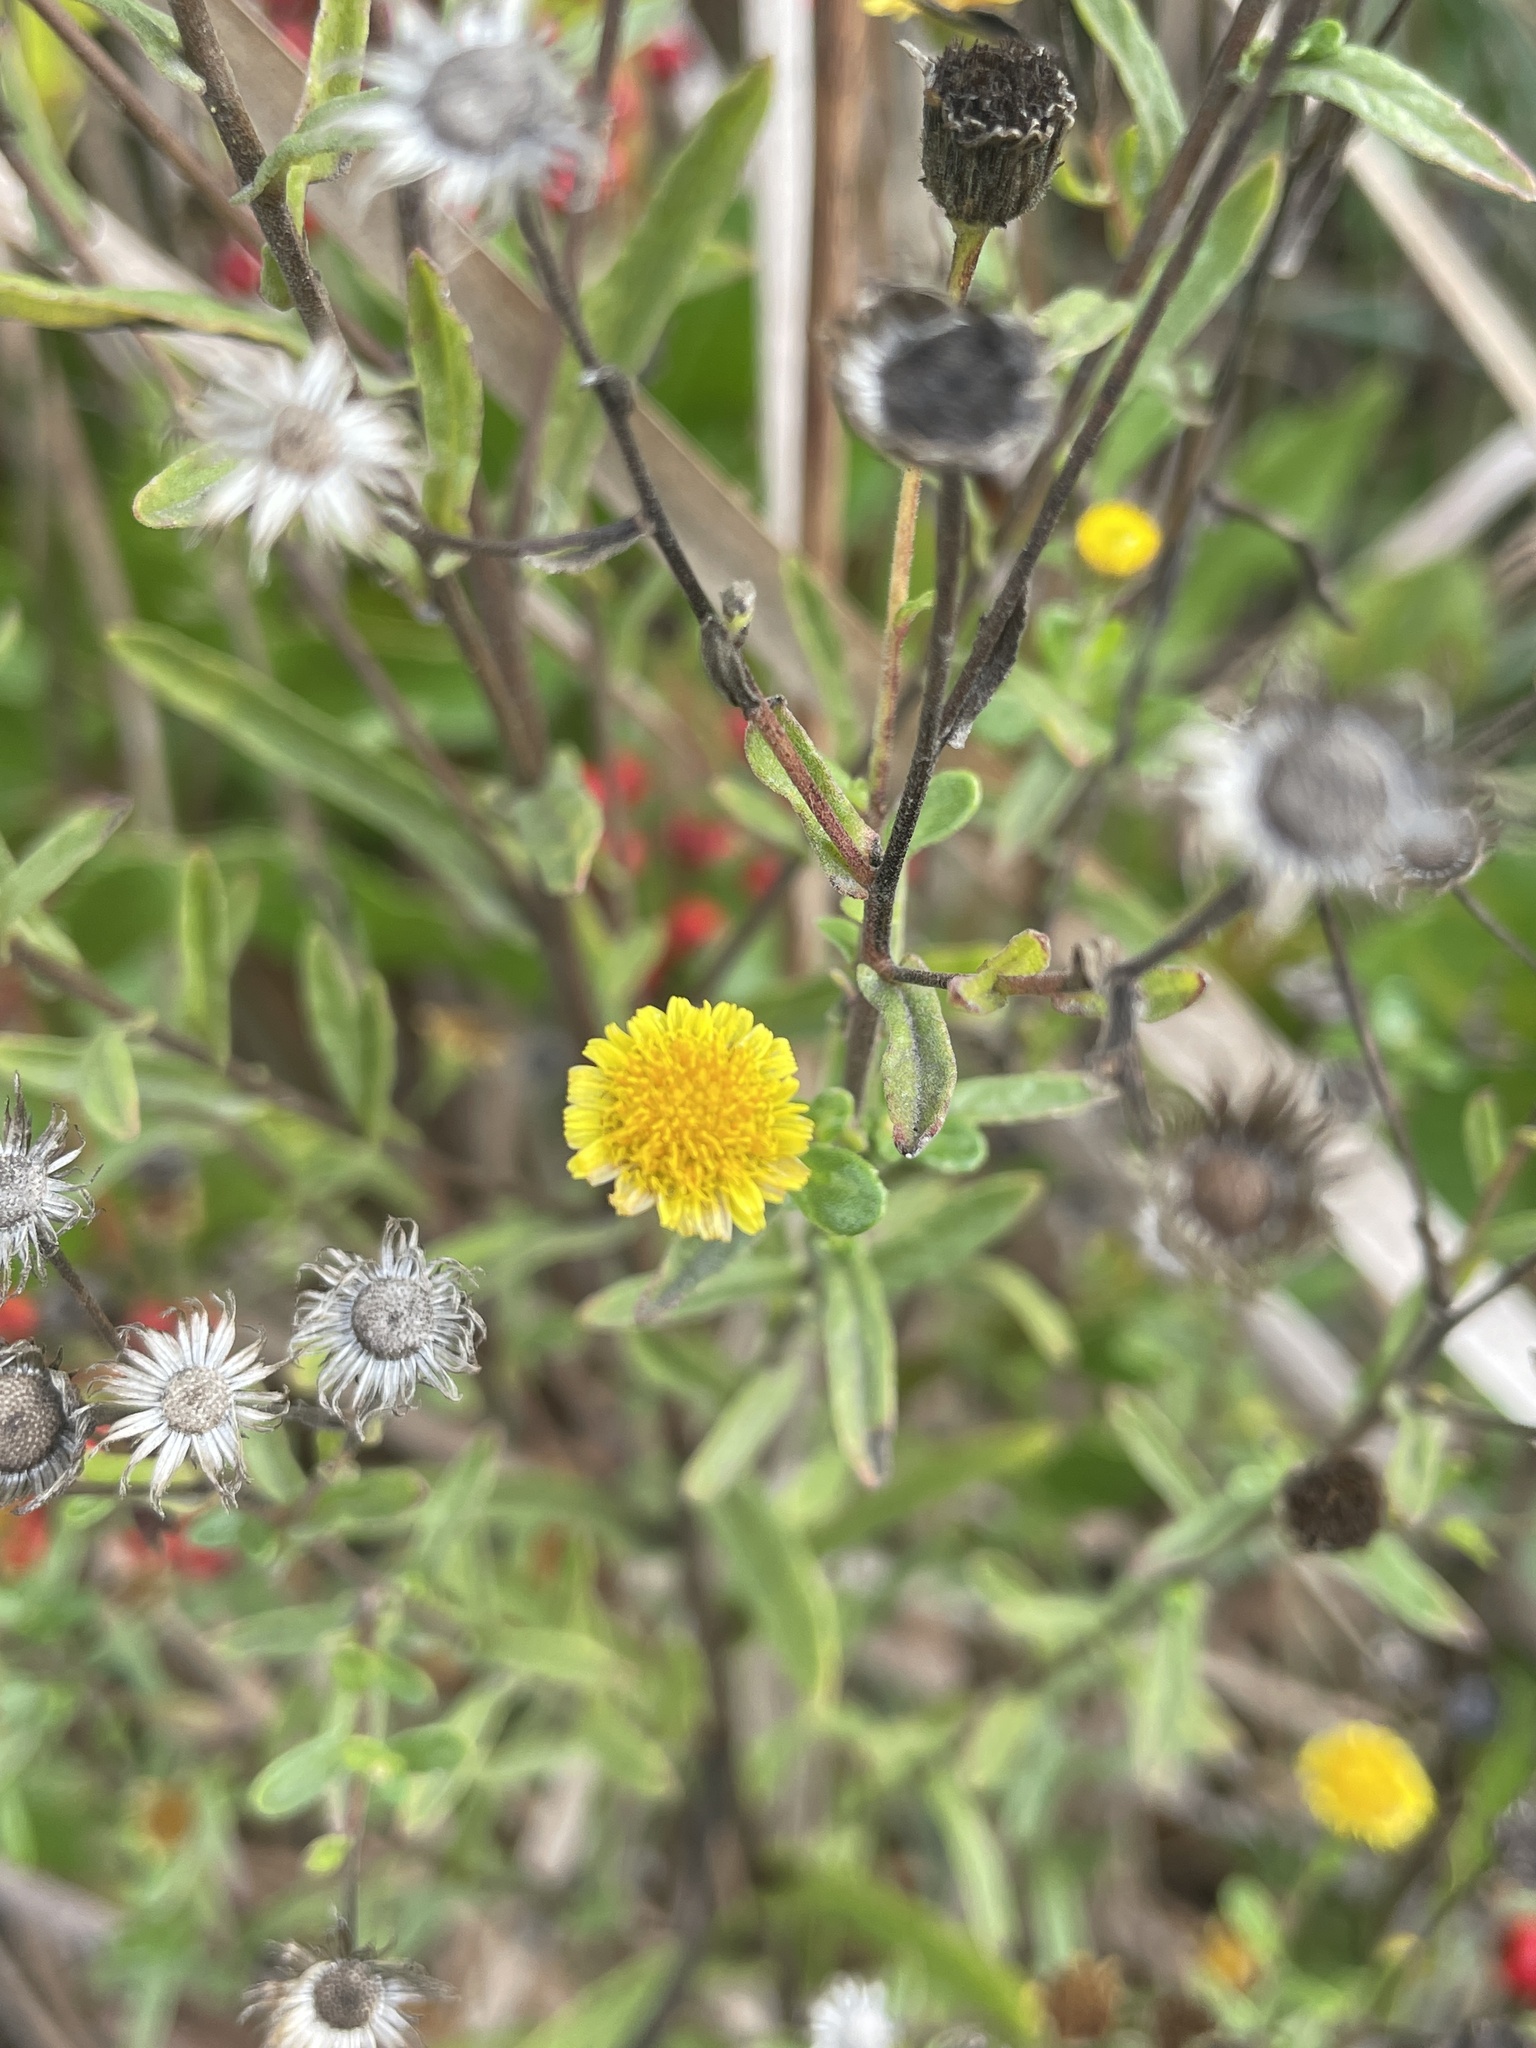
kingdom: Plantae
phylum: Tracheophyta
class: Magnoliopsida
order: Asterales
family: Asteraceae
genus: Pulicaria
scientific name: Pulicaria paludosa
